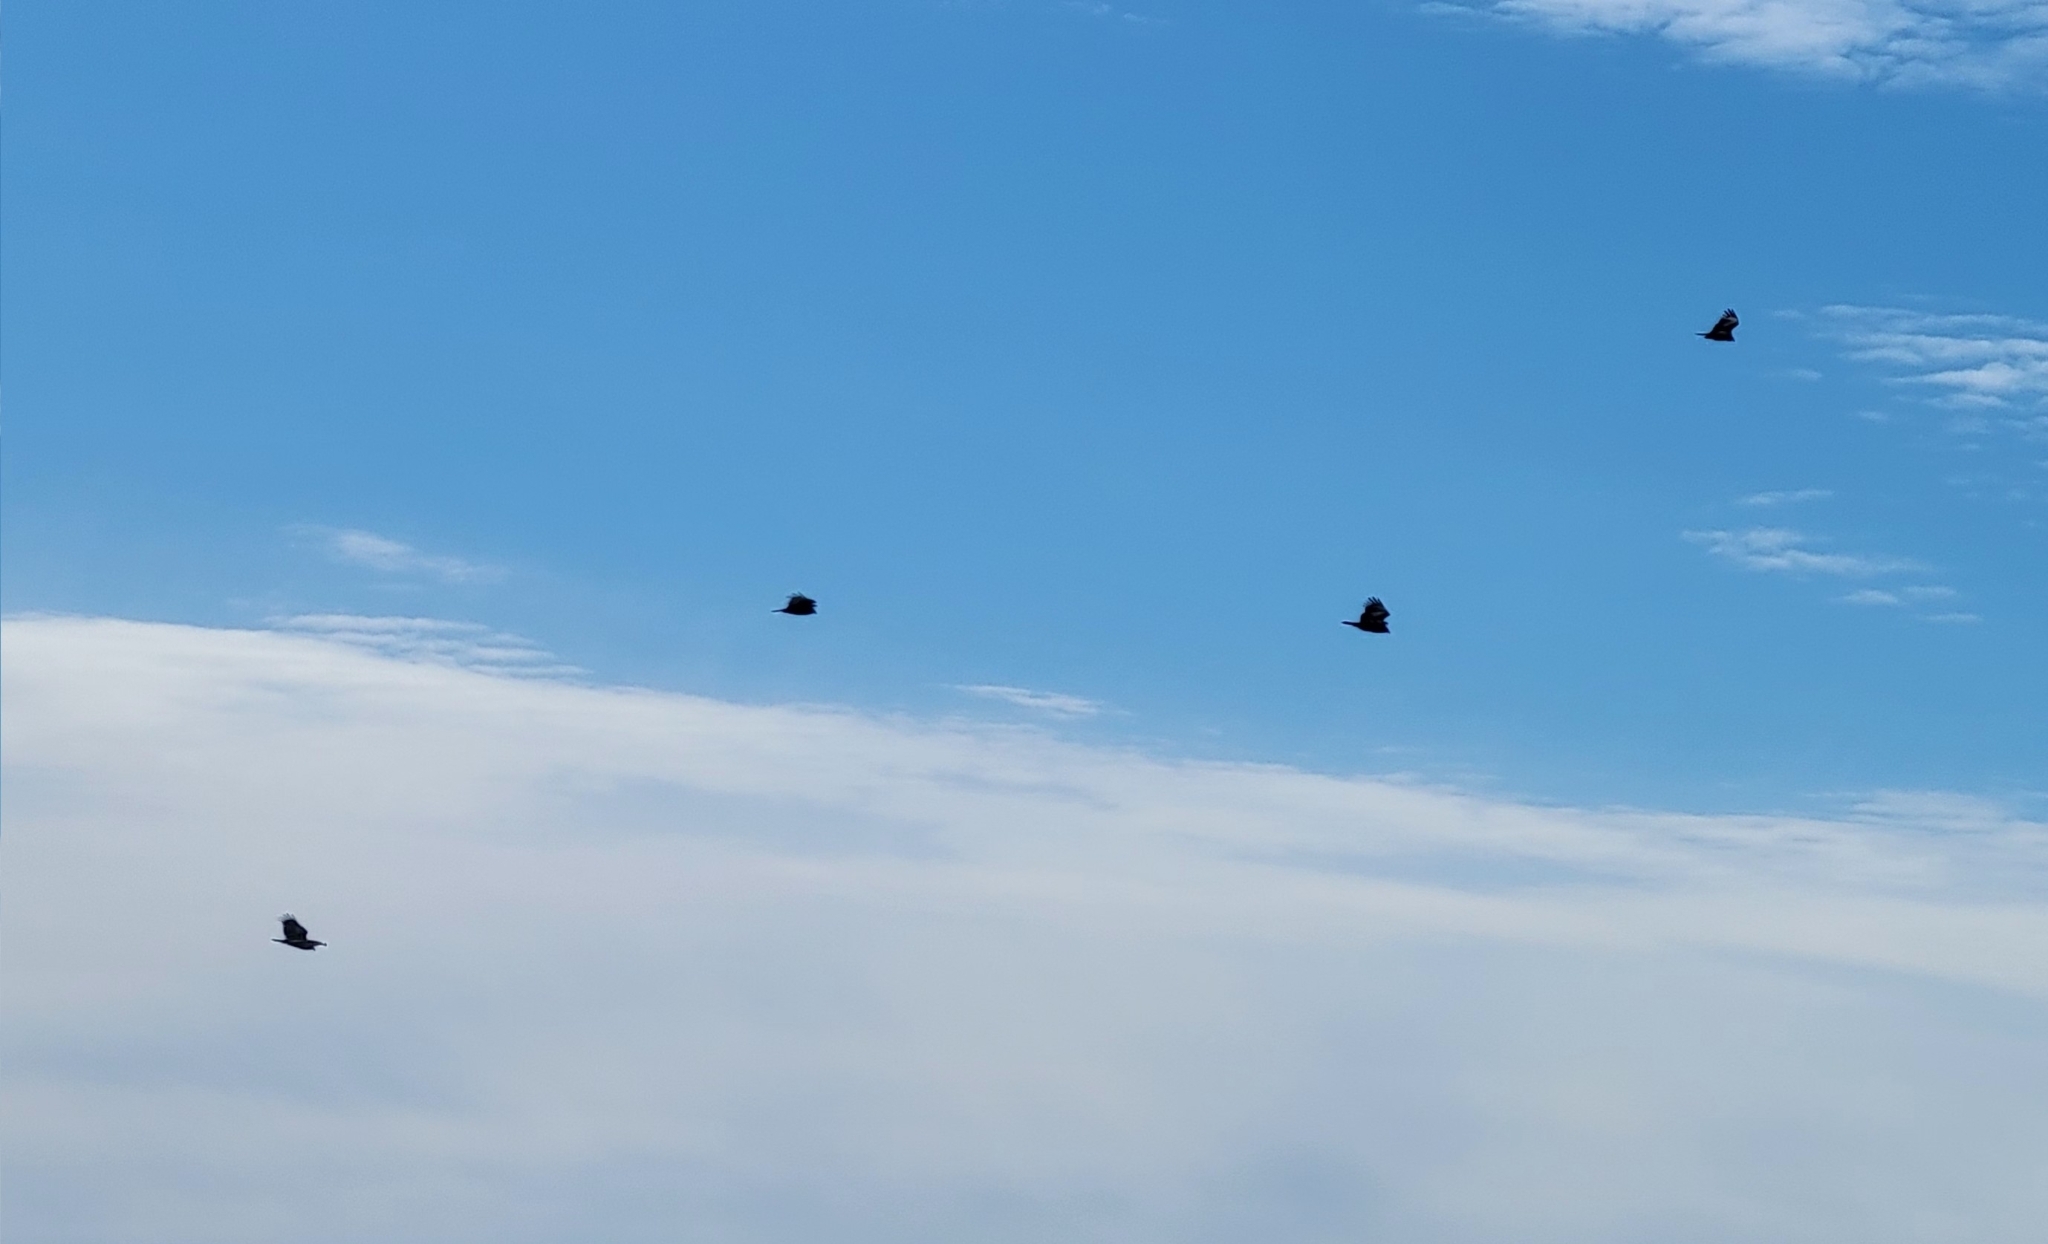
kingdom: Animalia
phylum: Chordata
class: Aves
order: Accipitriformes
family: Accipitridae
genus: Haliaeetus
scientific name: Haliaeetus leucocephalus
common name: Bald eagle
